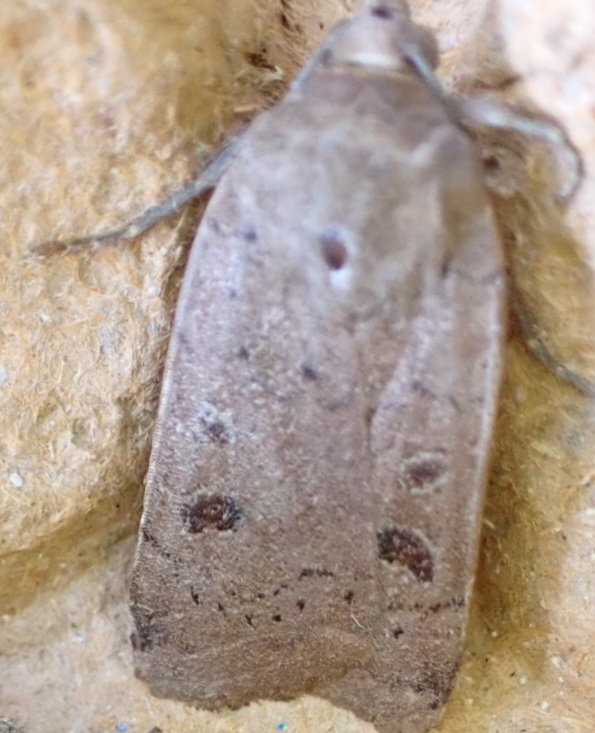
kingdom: Animalia
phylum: Arthropoda
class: Insecta
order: Lepidoptera
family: Noctuidae
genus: Noctua
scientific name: Noctua comes
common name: Lesser yellow underwing
